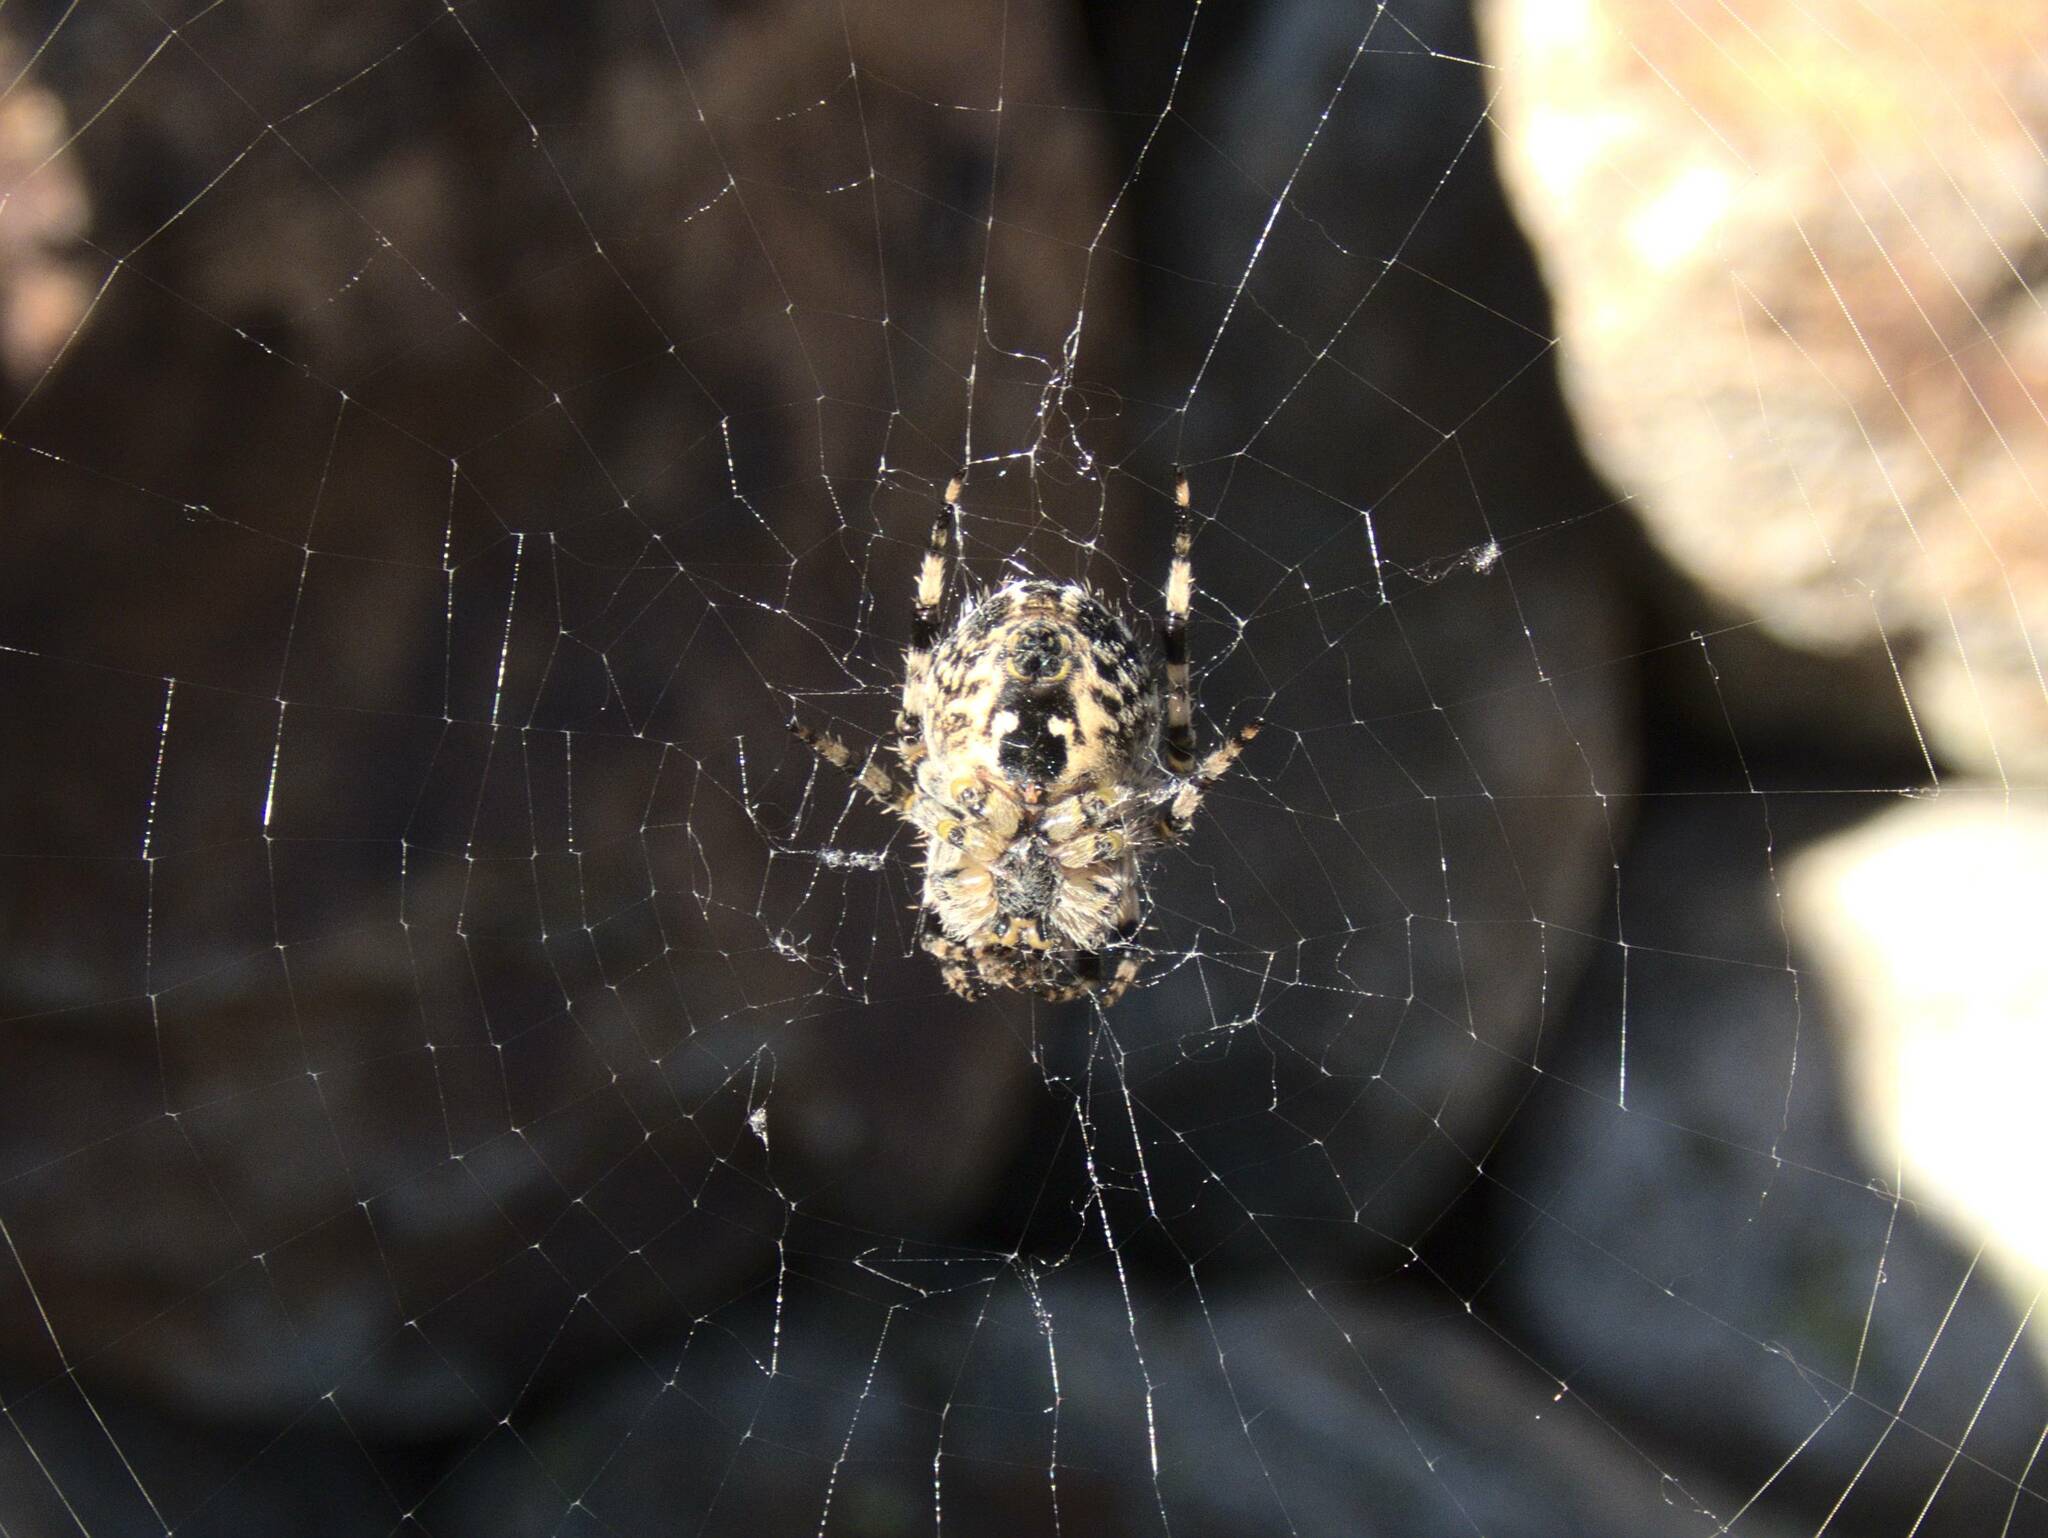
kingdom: Animalia
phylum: Arthropoda
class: Arachnida
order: Araneae
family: Araneidae
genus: Araneus
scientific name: Araneus diadematus
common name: Cross orbweaver
